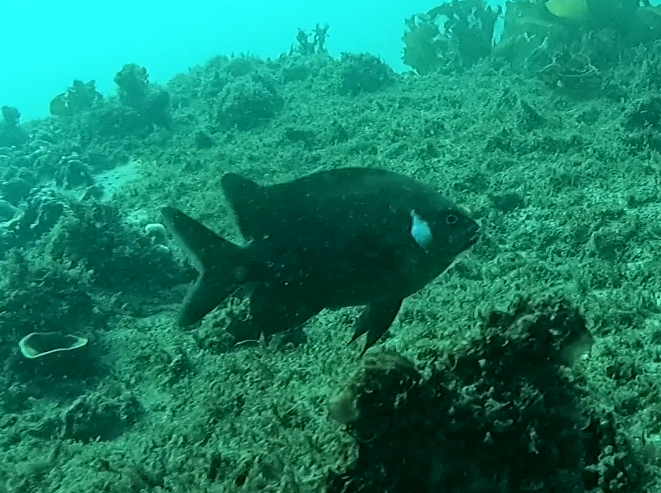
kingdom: Animalia
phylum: Chordata
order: Perciformes
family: Pomacentridae
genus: Parma
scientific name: Parma microlepis
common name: White-ear
